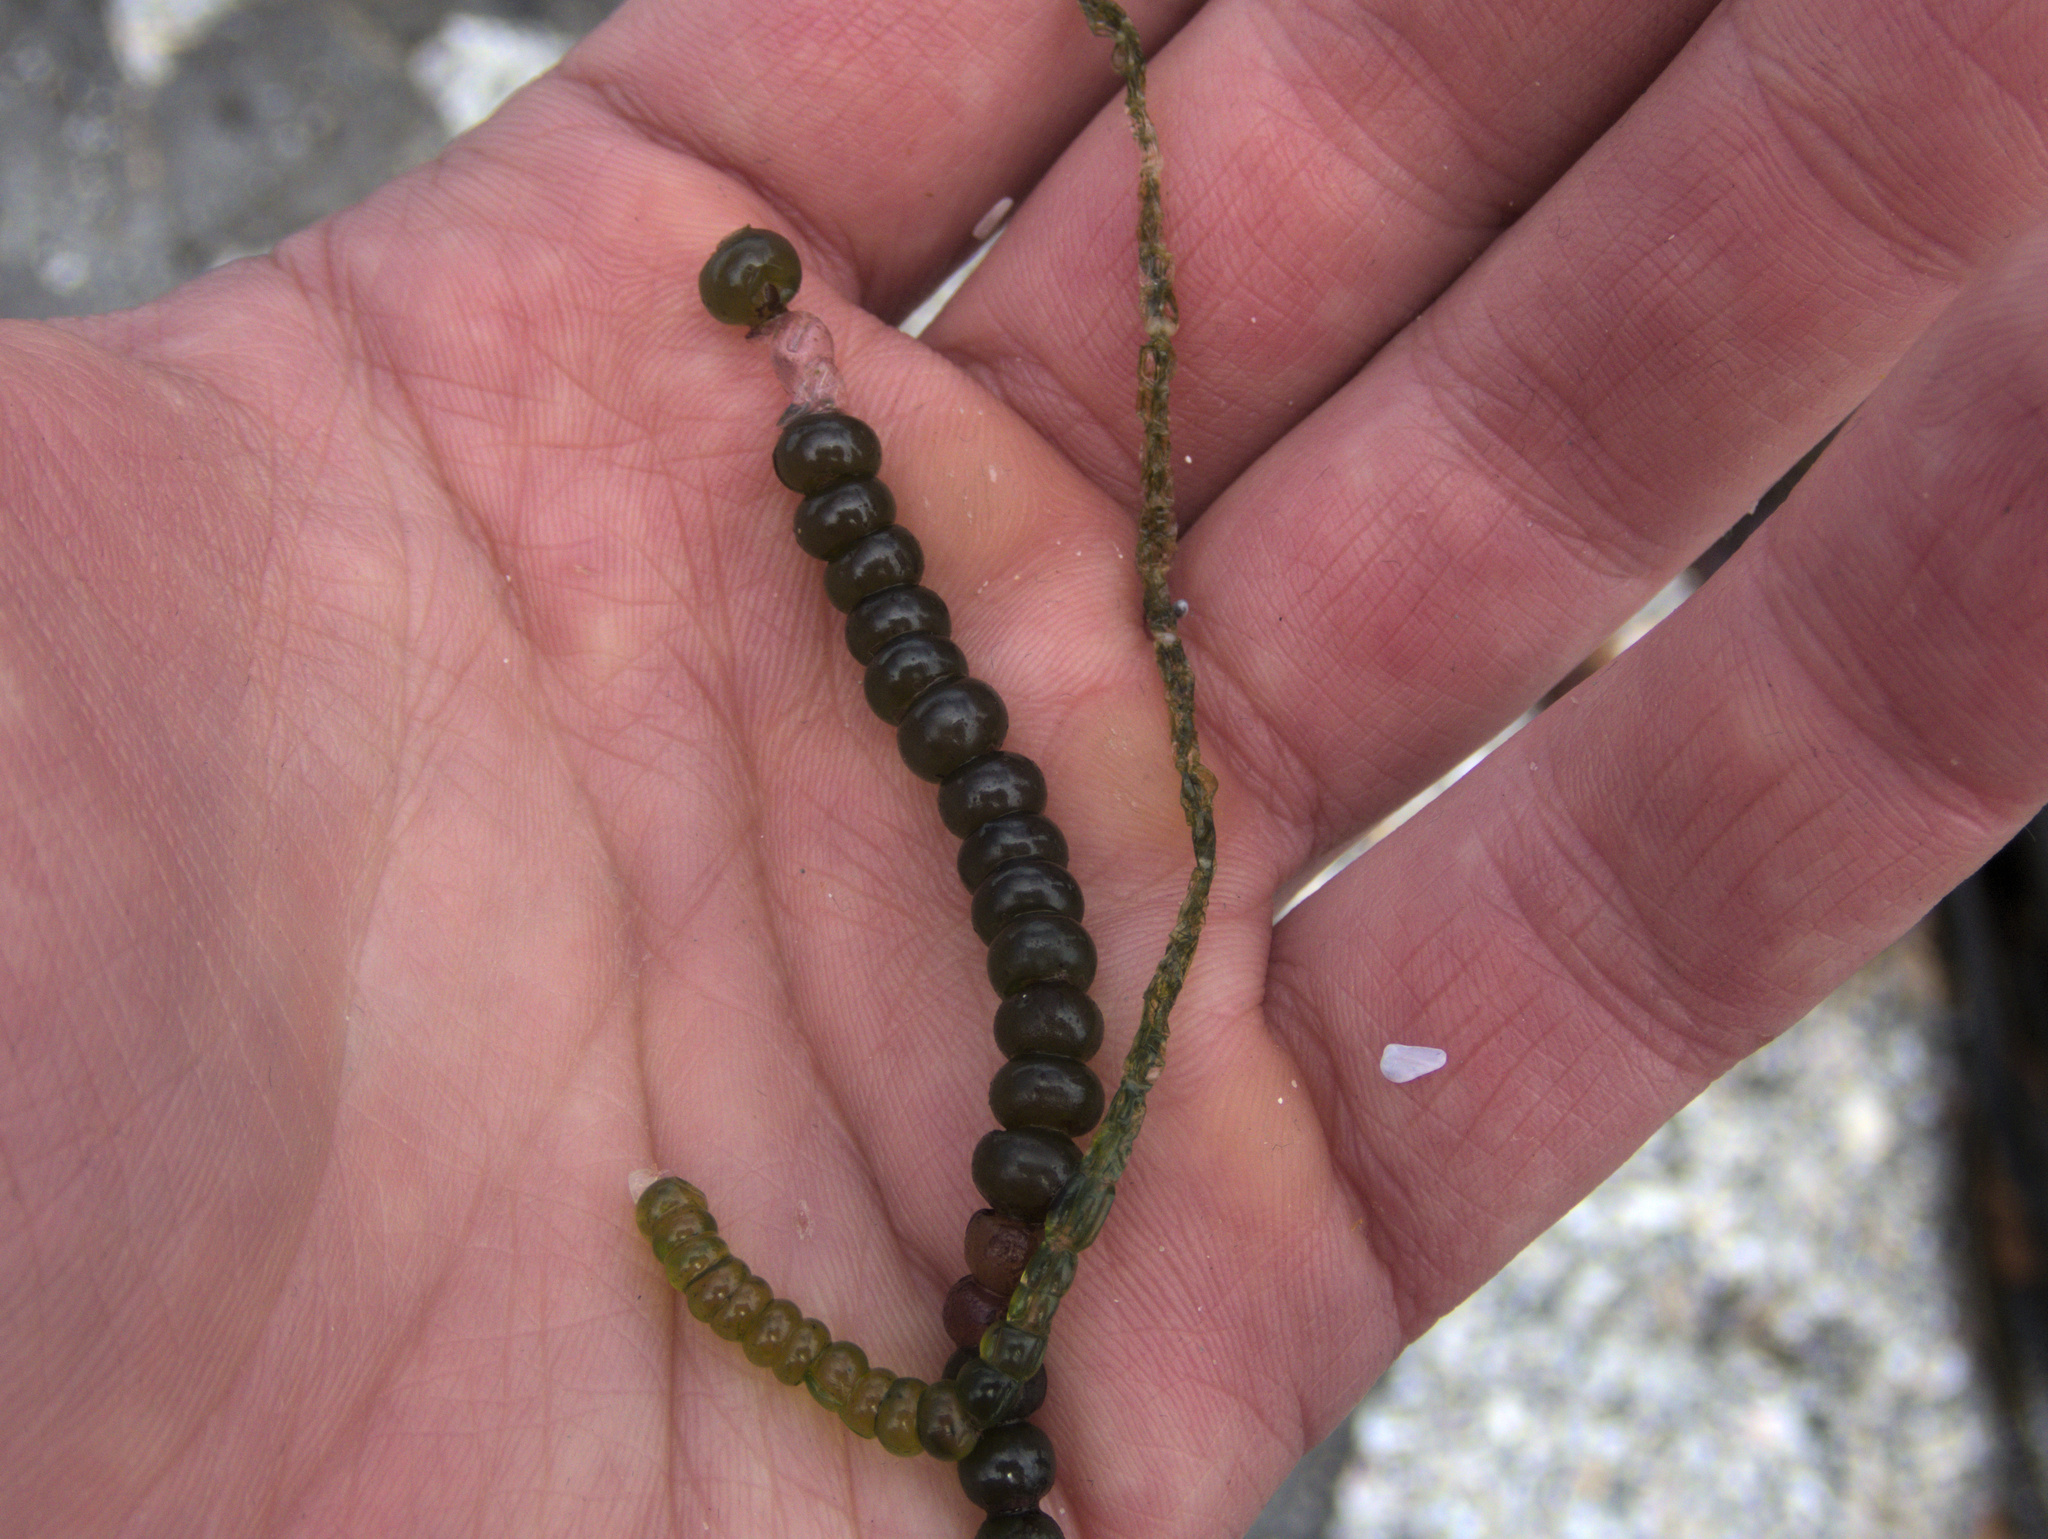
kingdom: Plantae
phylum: Chlorophyta
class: Ulvophyceae
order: Cladophorales
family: Cladophoraceae
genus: Chaetomorpha
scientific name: Chaetomorpha coliformis
